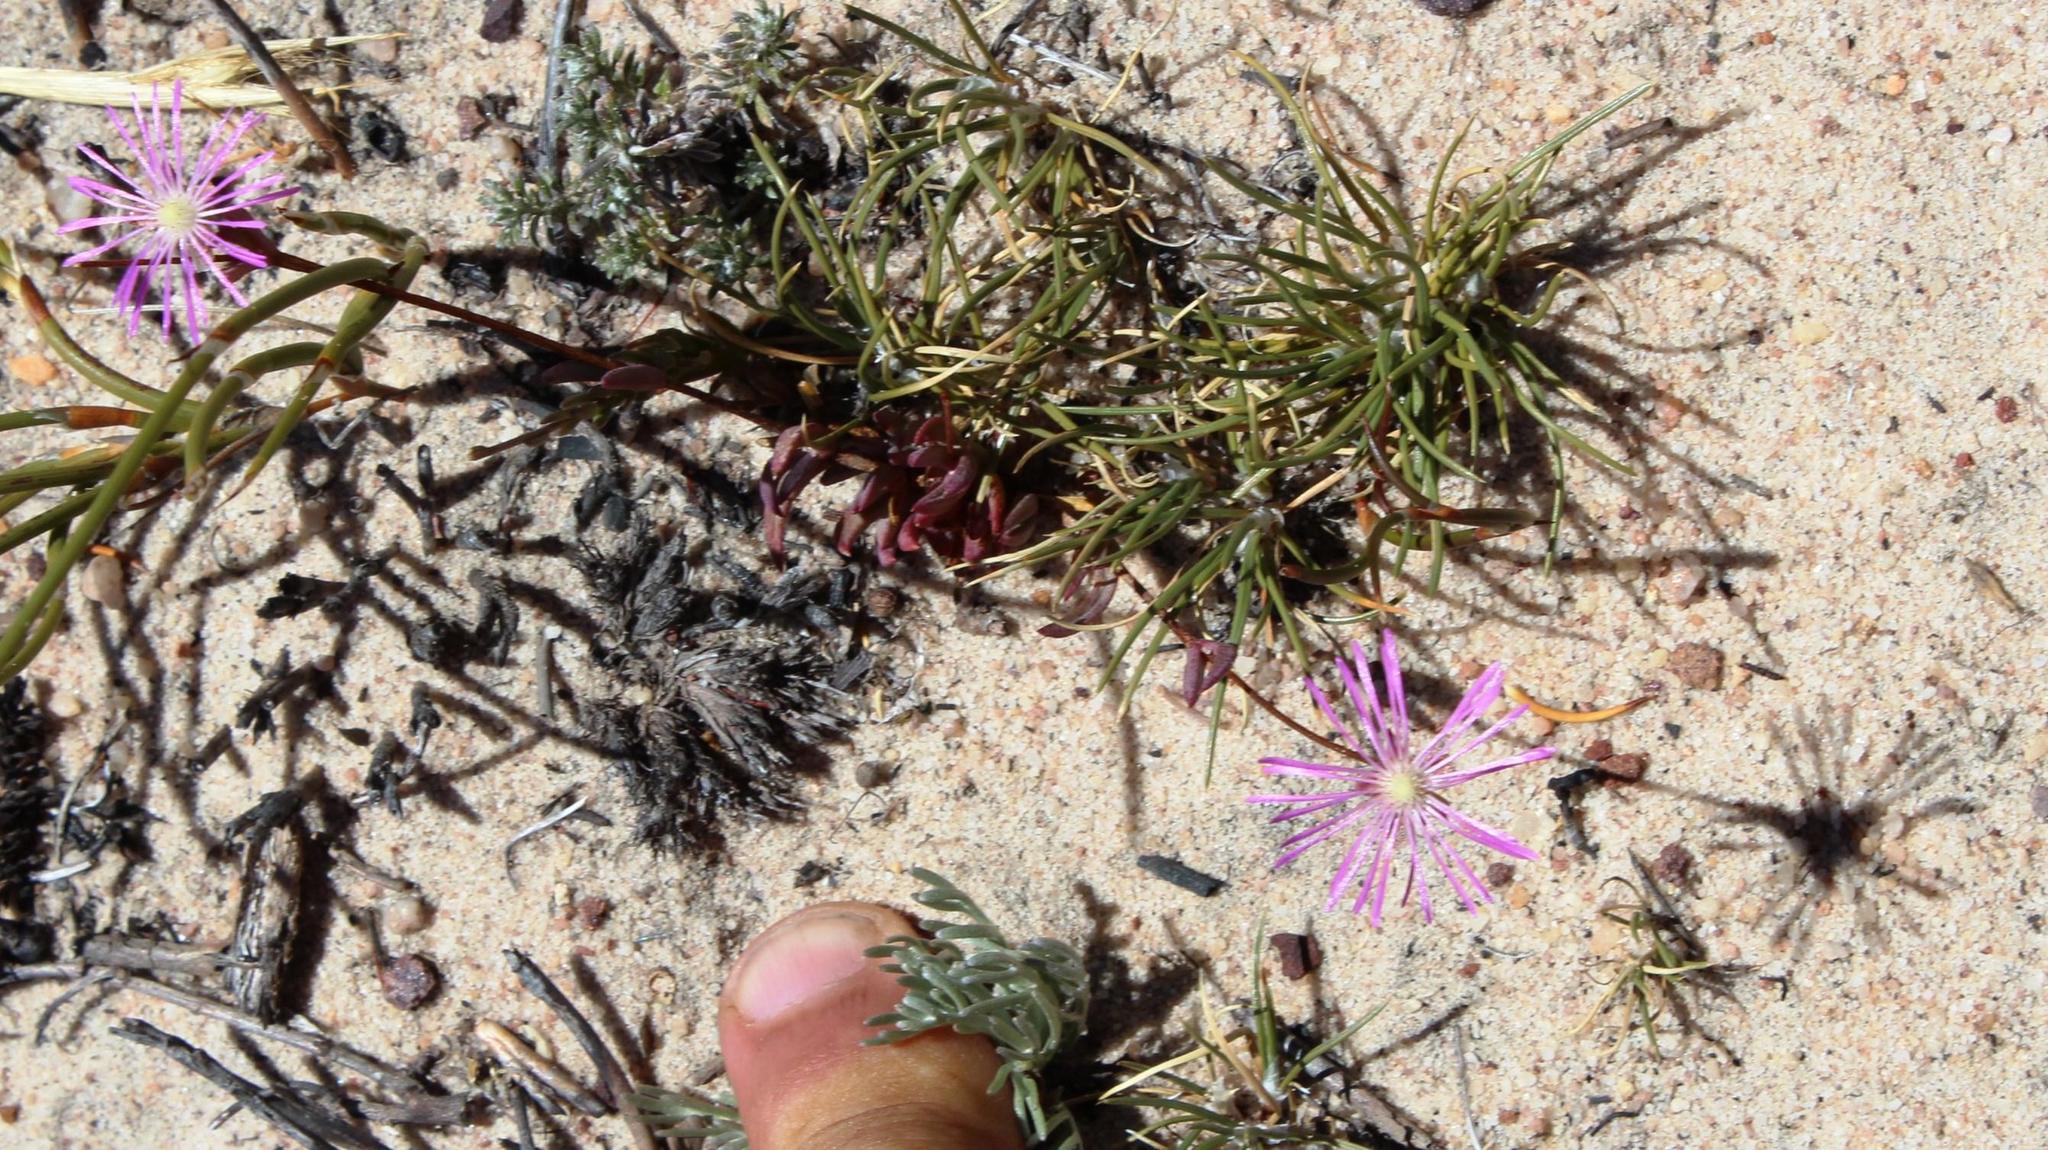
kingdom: Plantae
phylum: Tracheophyta
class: Magnoliopsida
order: Caryophyllales
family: Aizoaceae
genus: Erepsia
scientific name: Erepsia aspera
